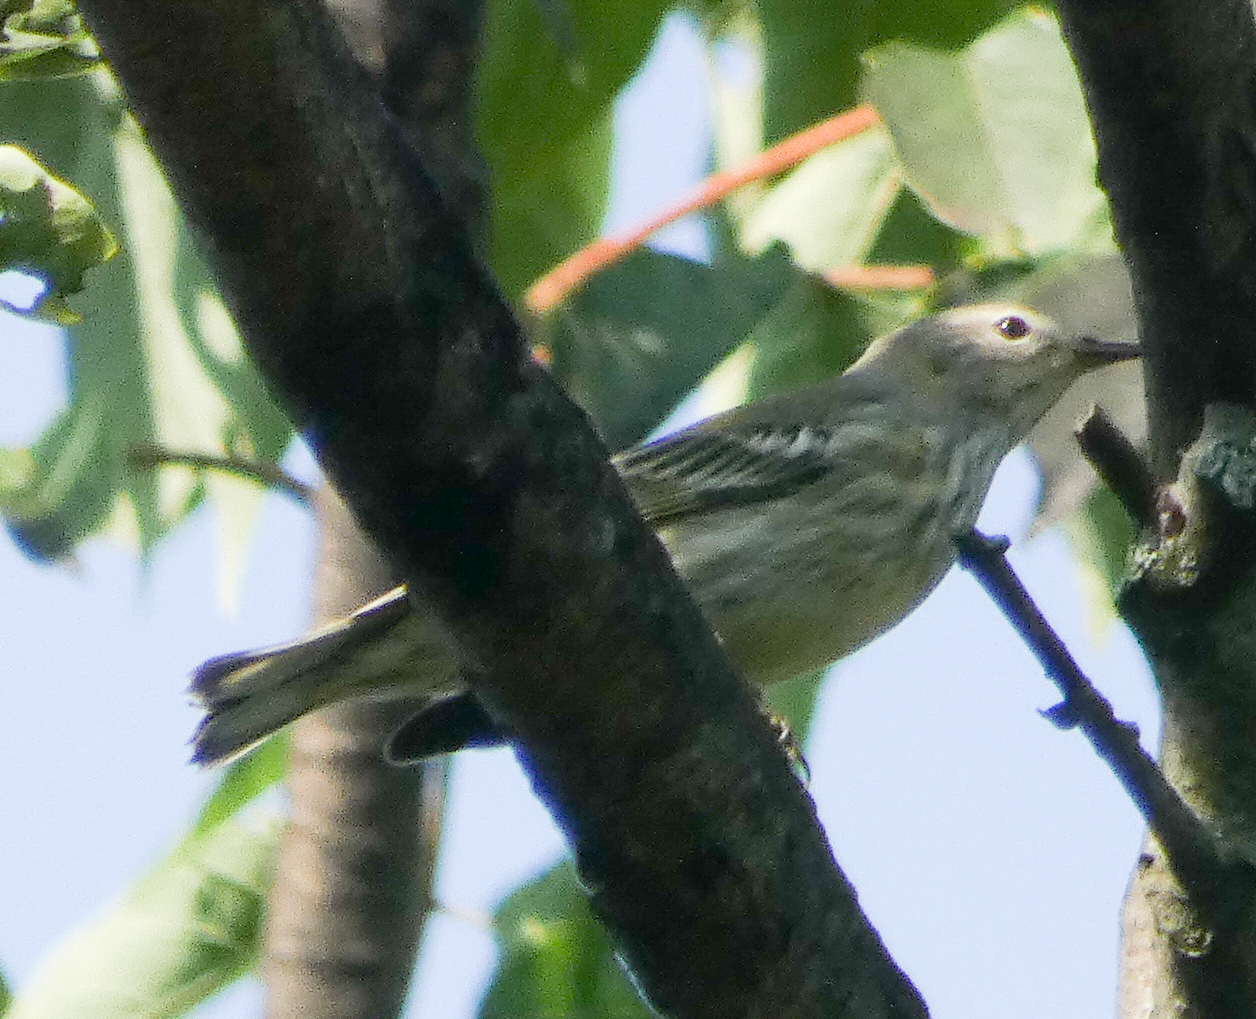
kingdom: Animalia
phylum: Chordata
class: Aves
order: Passeriformes
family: Parulidae
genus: Setophaga
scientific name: Setophaga tigrina
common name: Cape may warbler
